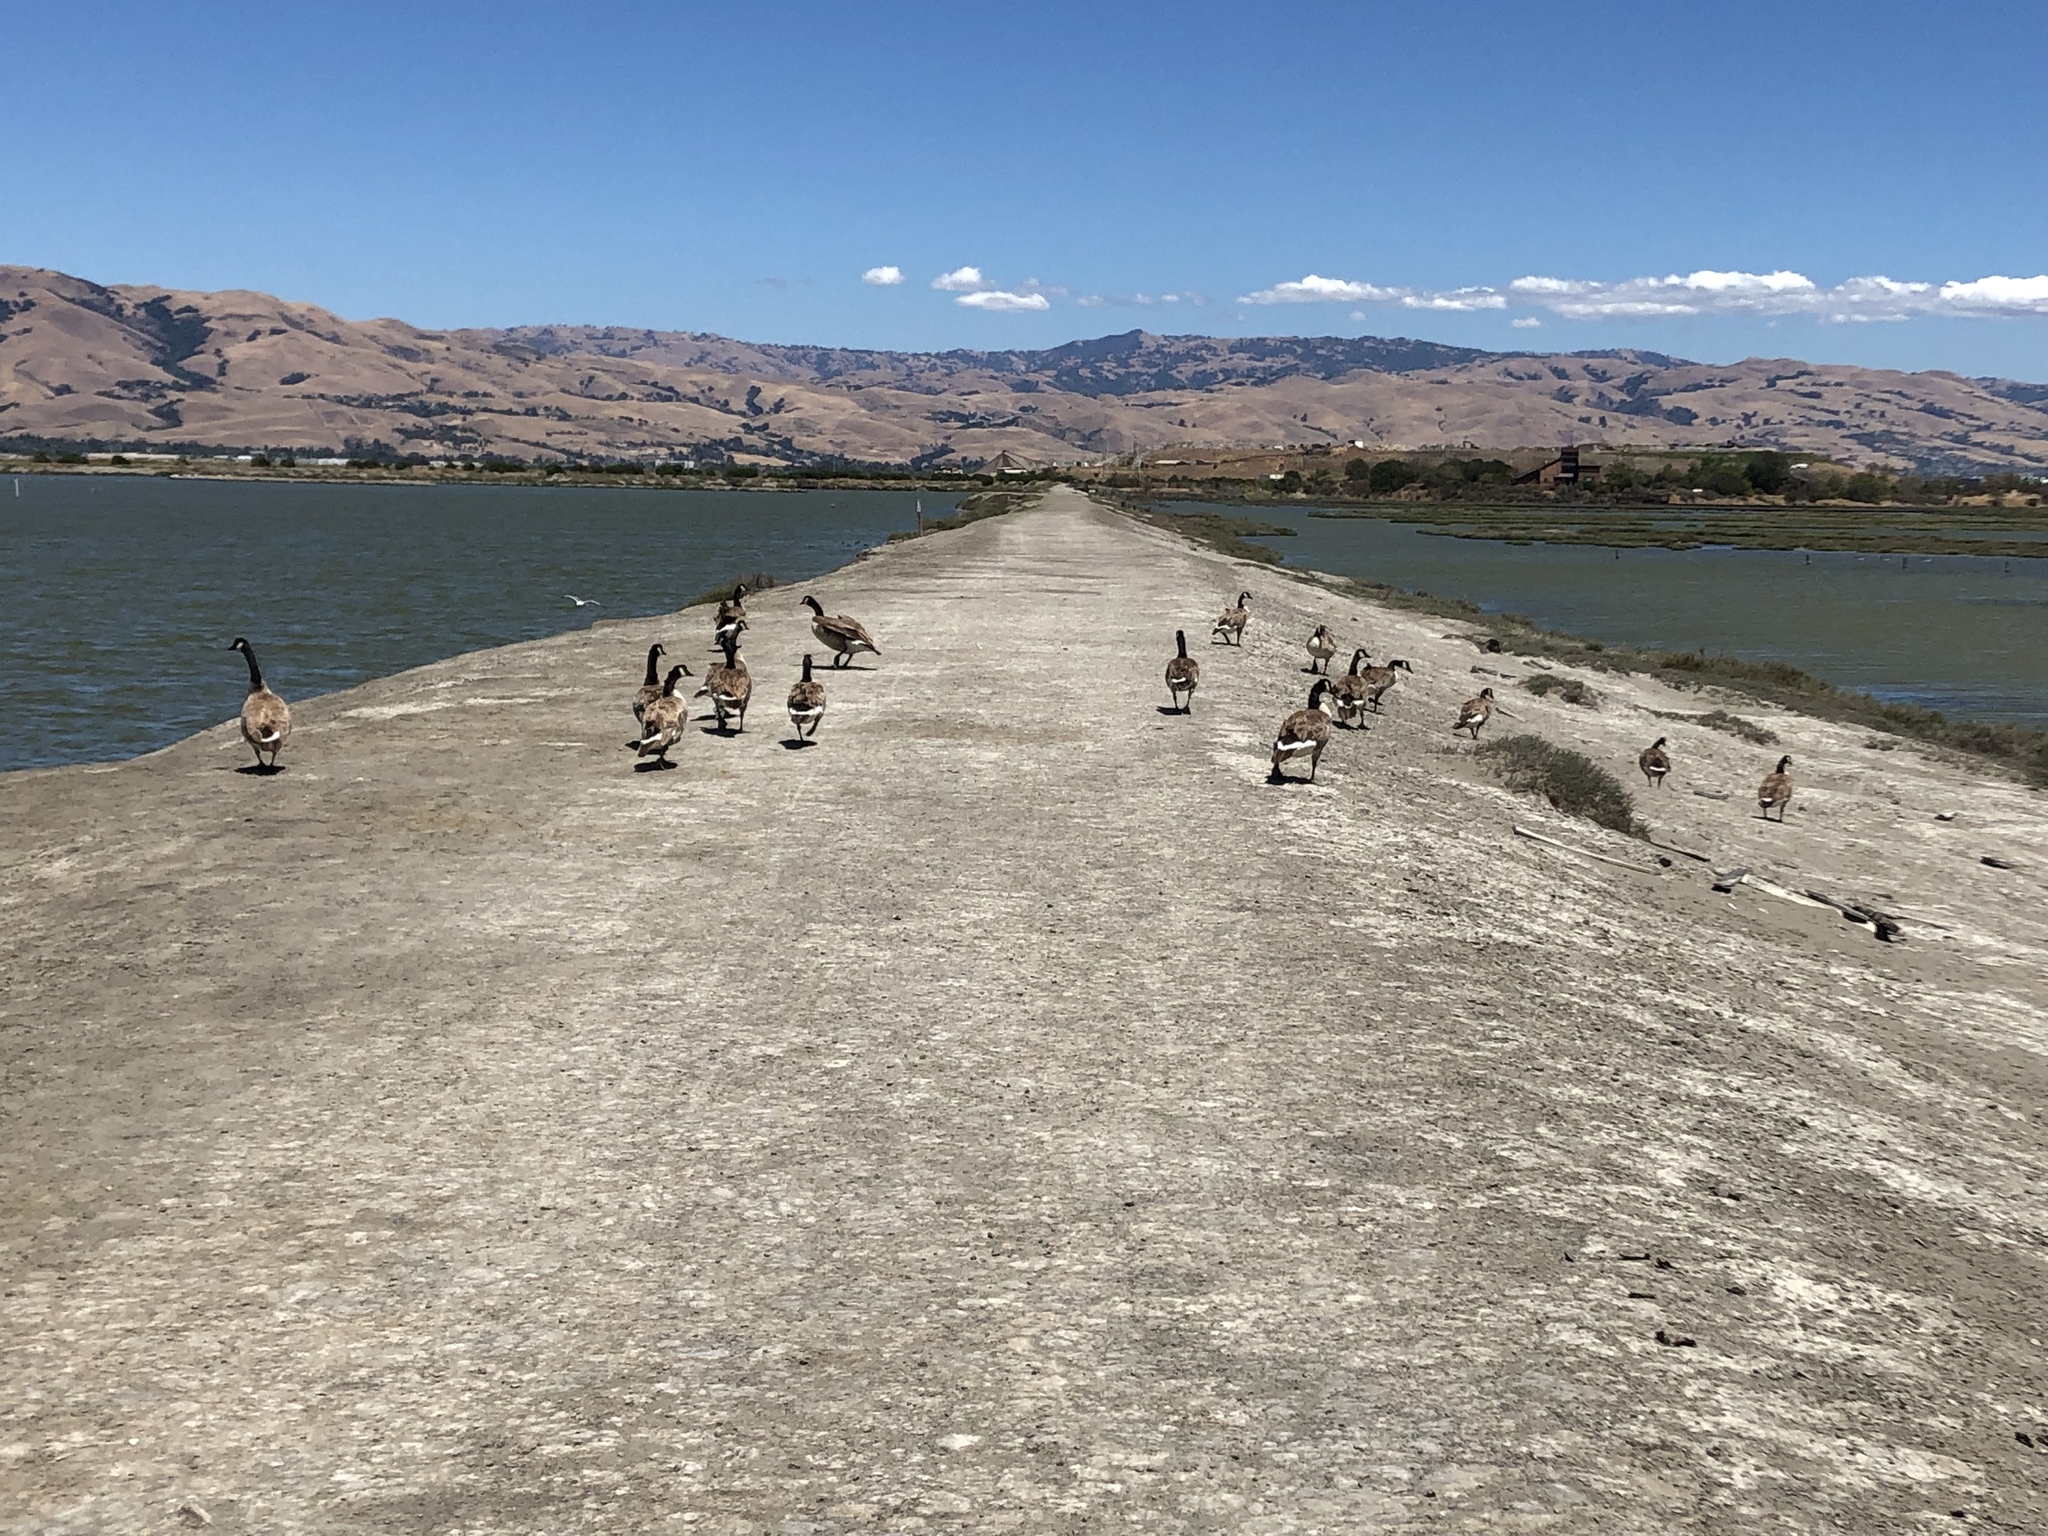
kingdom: Animalia
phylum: Chordata
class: Aves
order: Anseriformes
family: Anatidae
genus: Branta
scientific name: Branta canadensis
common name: Canada goose
